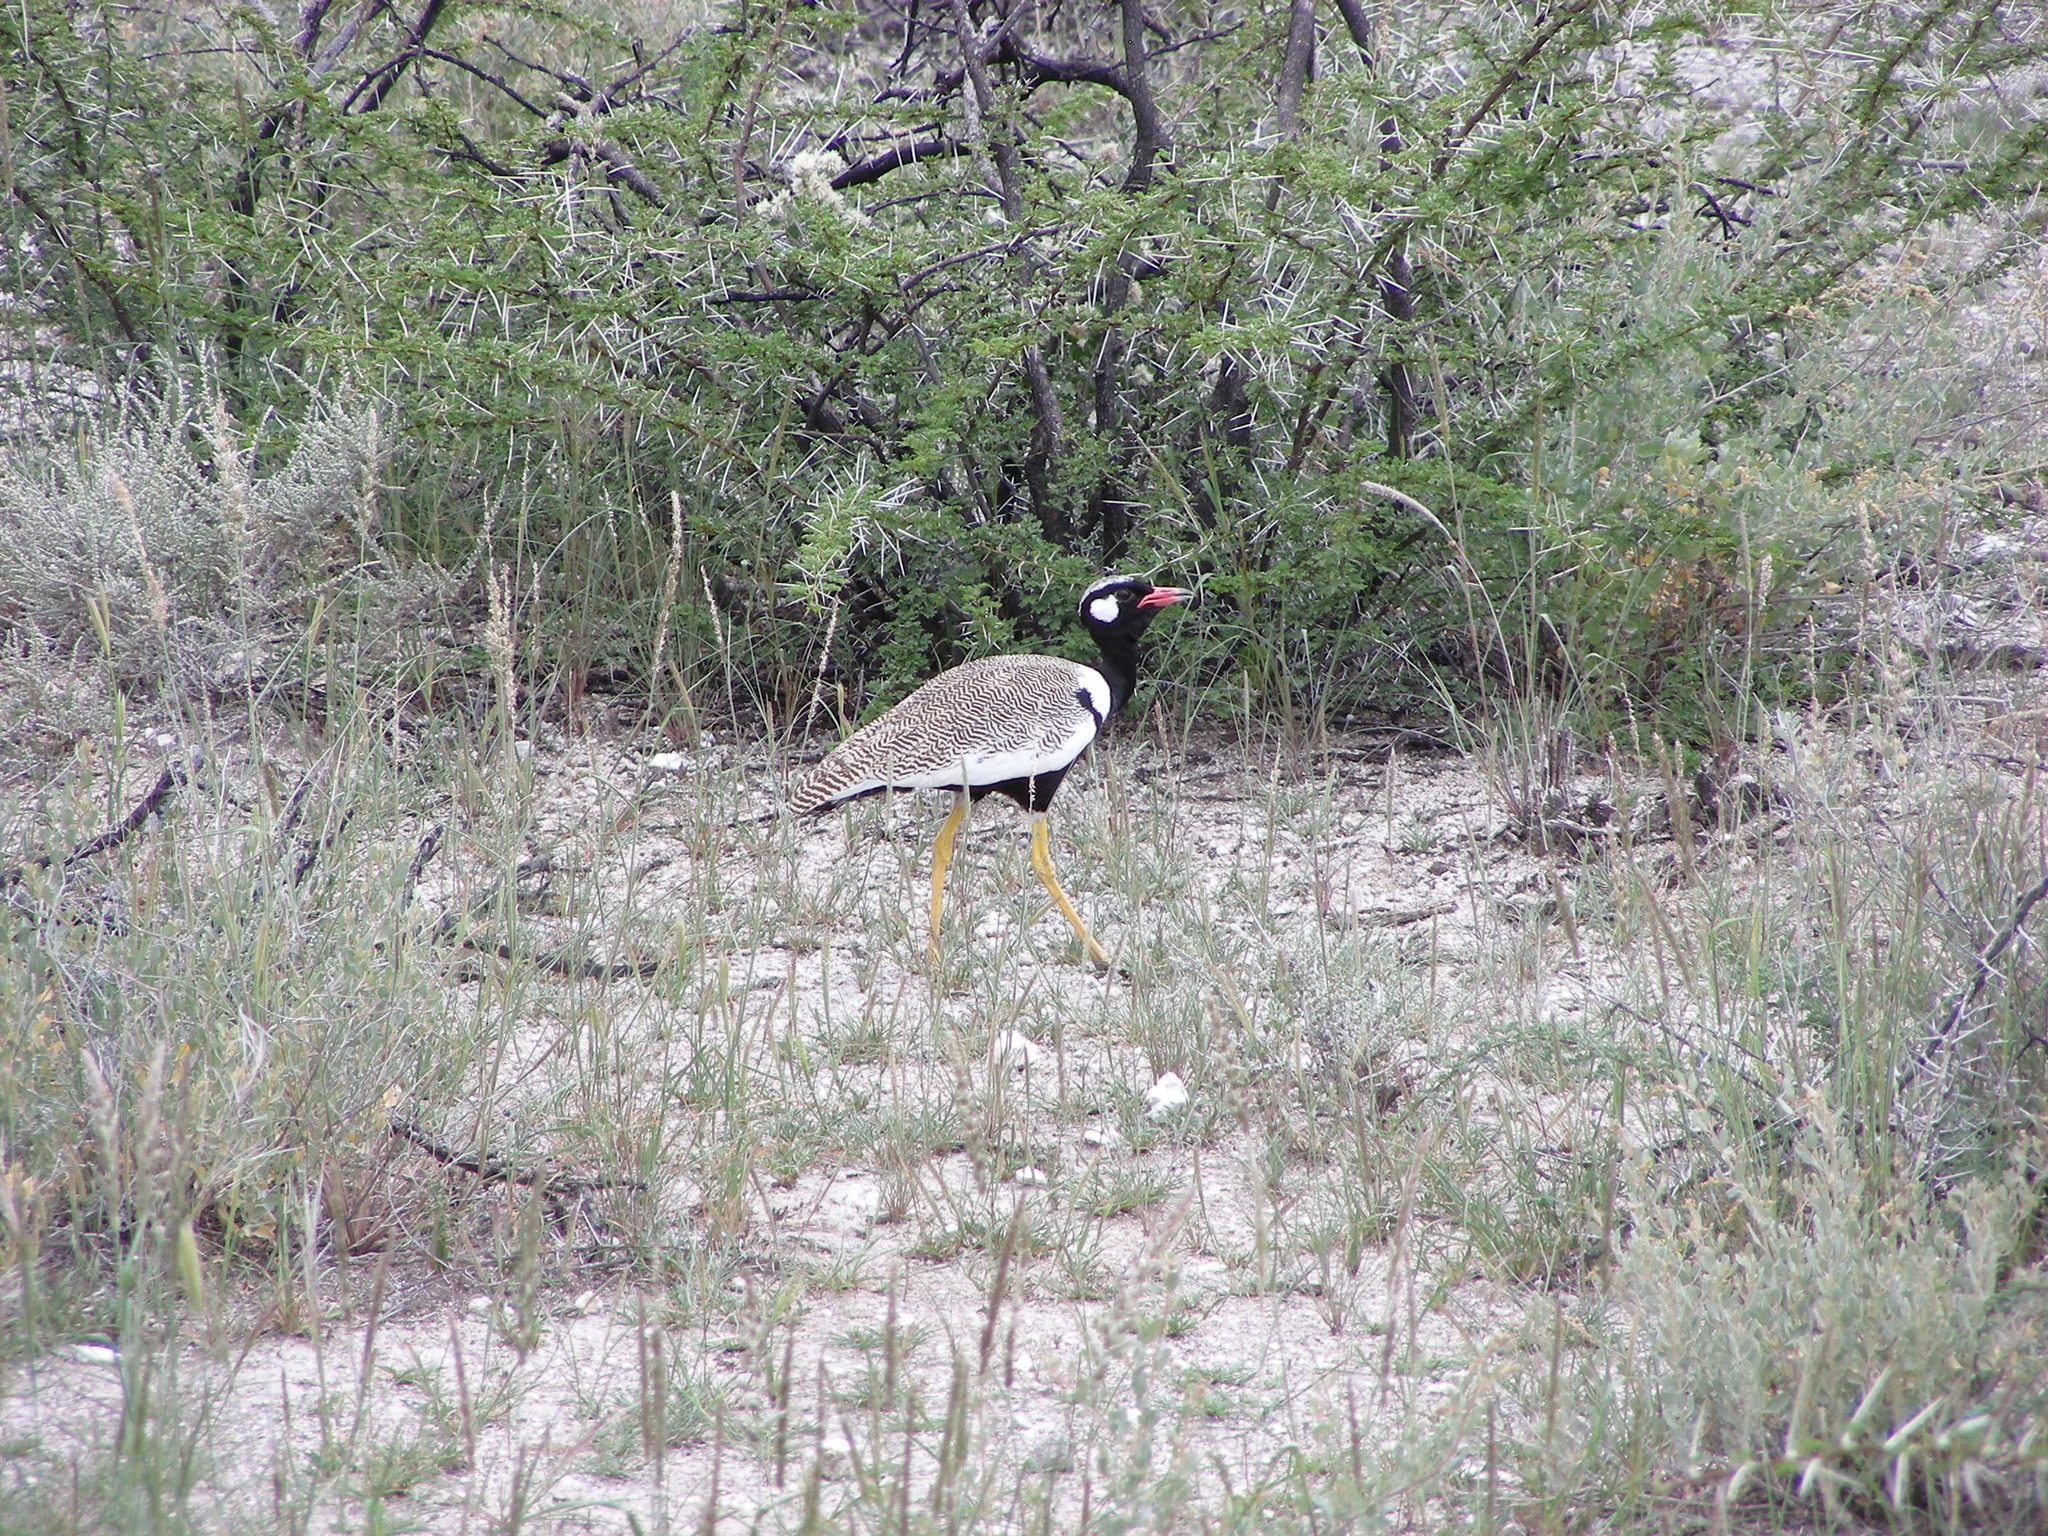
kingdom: Animalia
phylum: Chordata
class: Aves
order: Otidiformes
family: Otididae
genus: Afrotis
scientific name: Afrotis afraoides
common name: Northern black korhaan
